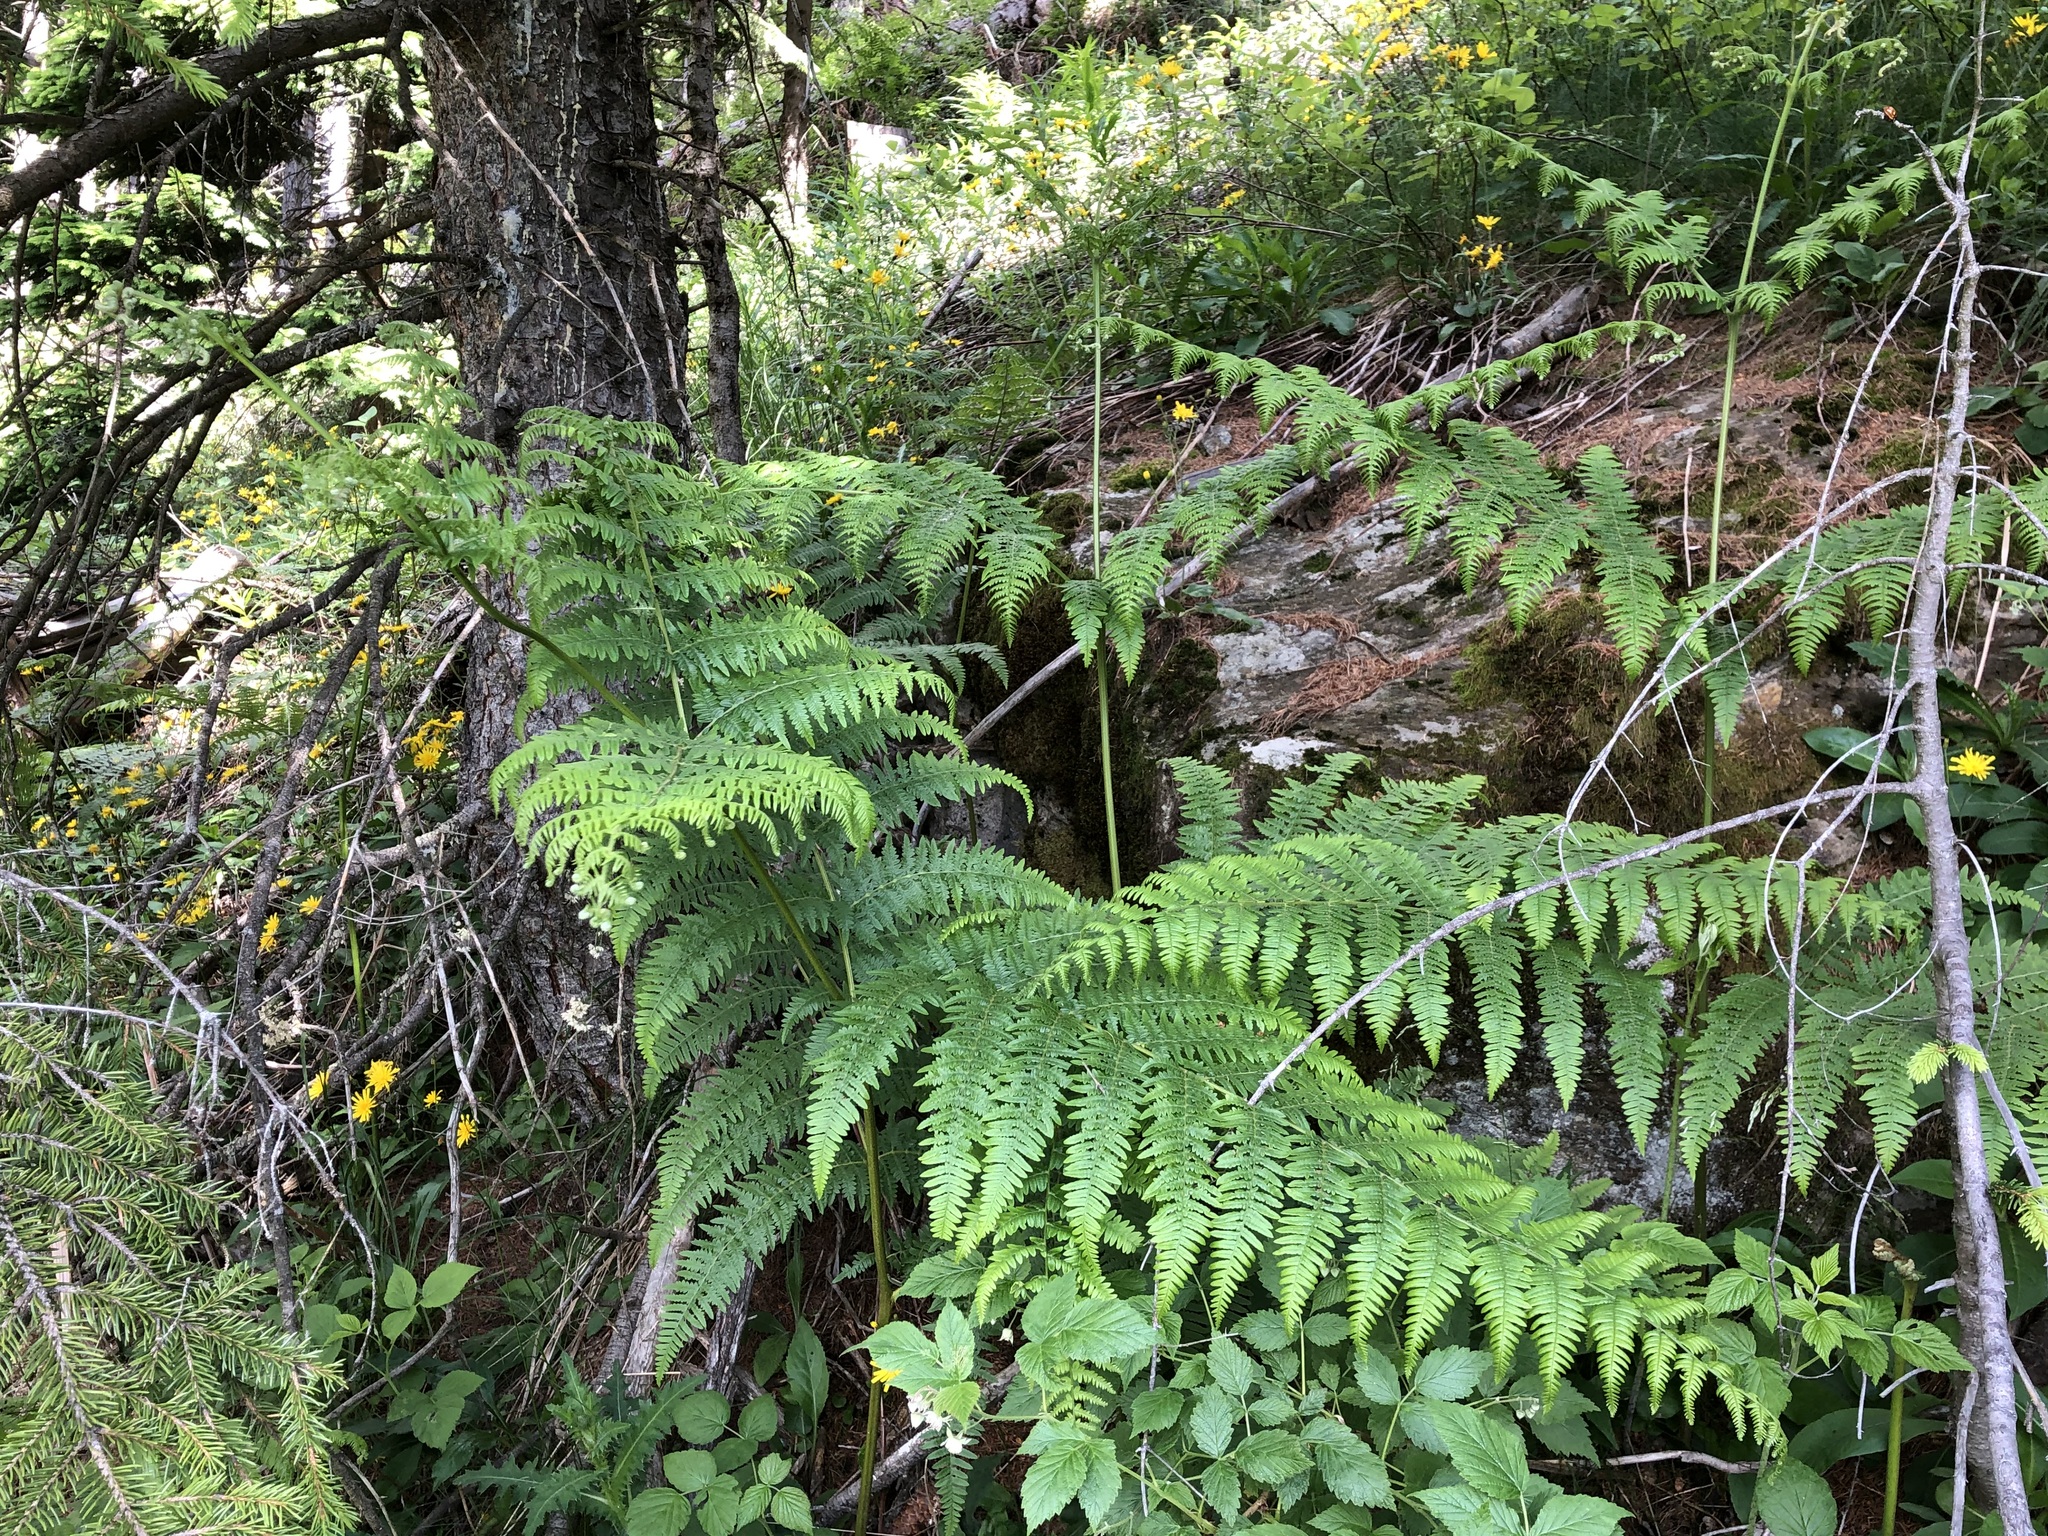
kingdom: Plantae
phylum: Tracheophyta
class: Polypodiopsida
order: Polypodiales
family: Dennstaedtiaceae
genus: Pteridium
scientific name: Pteridium aquilinum
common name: Bracken
